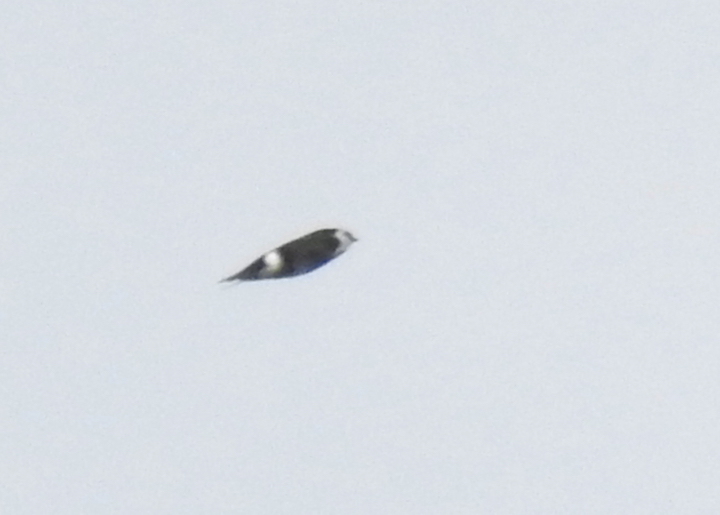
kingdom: Animalia
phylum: Chordata
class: Aves
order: Passeriformes
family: Hirundinidae
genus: Tachycineta
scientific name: Tachycineta thalassina
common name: Violet-green swallow
